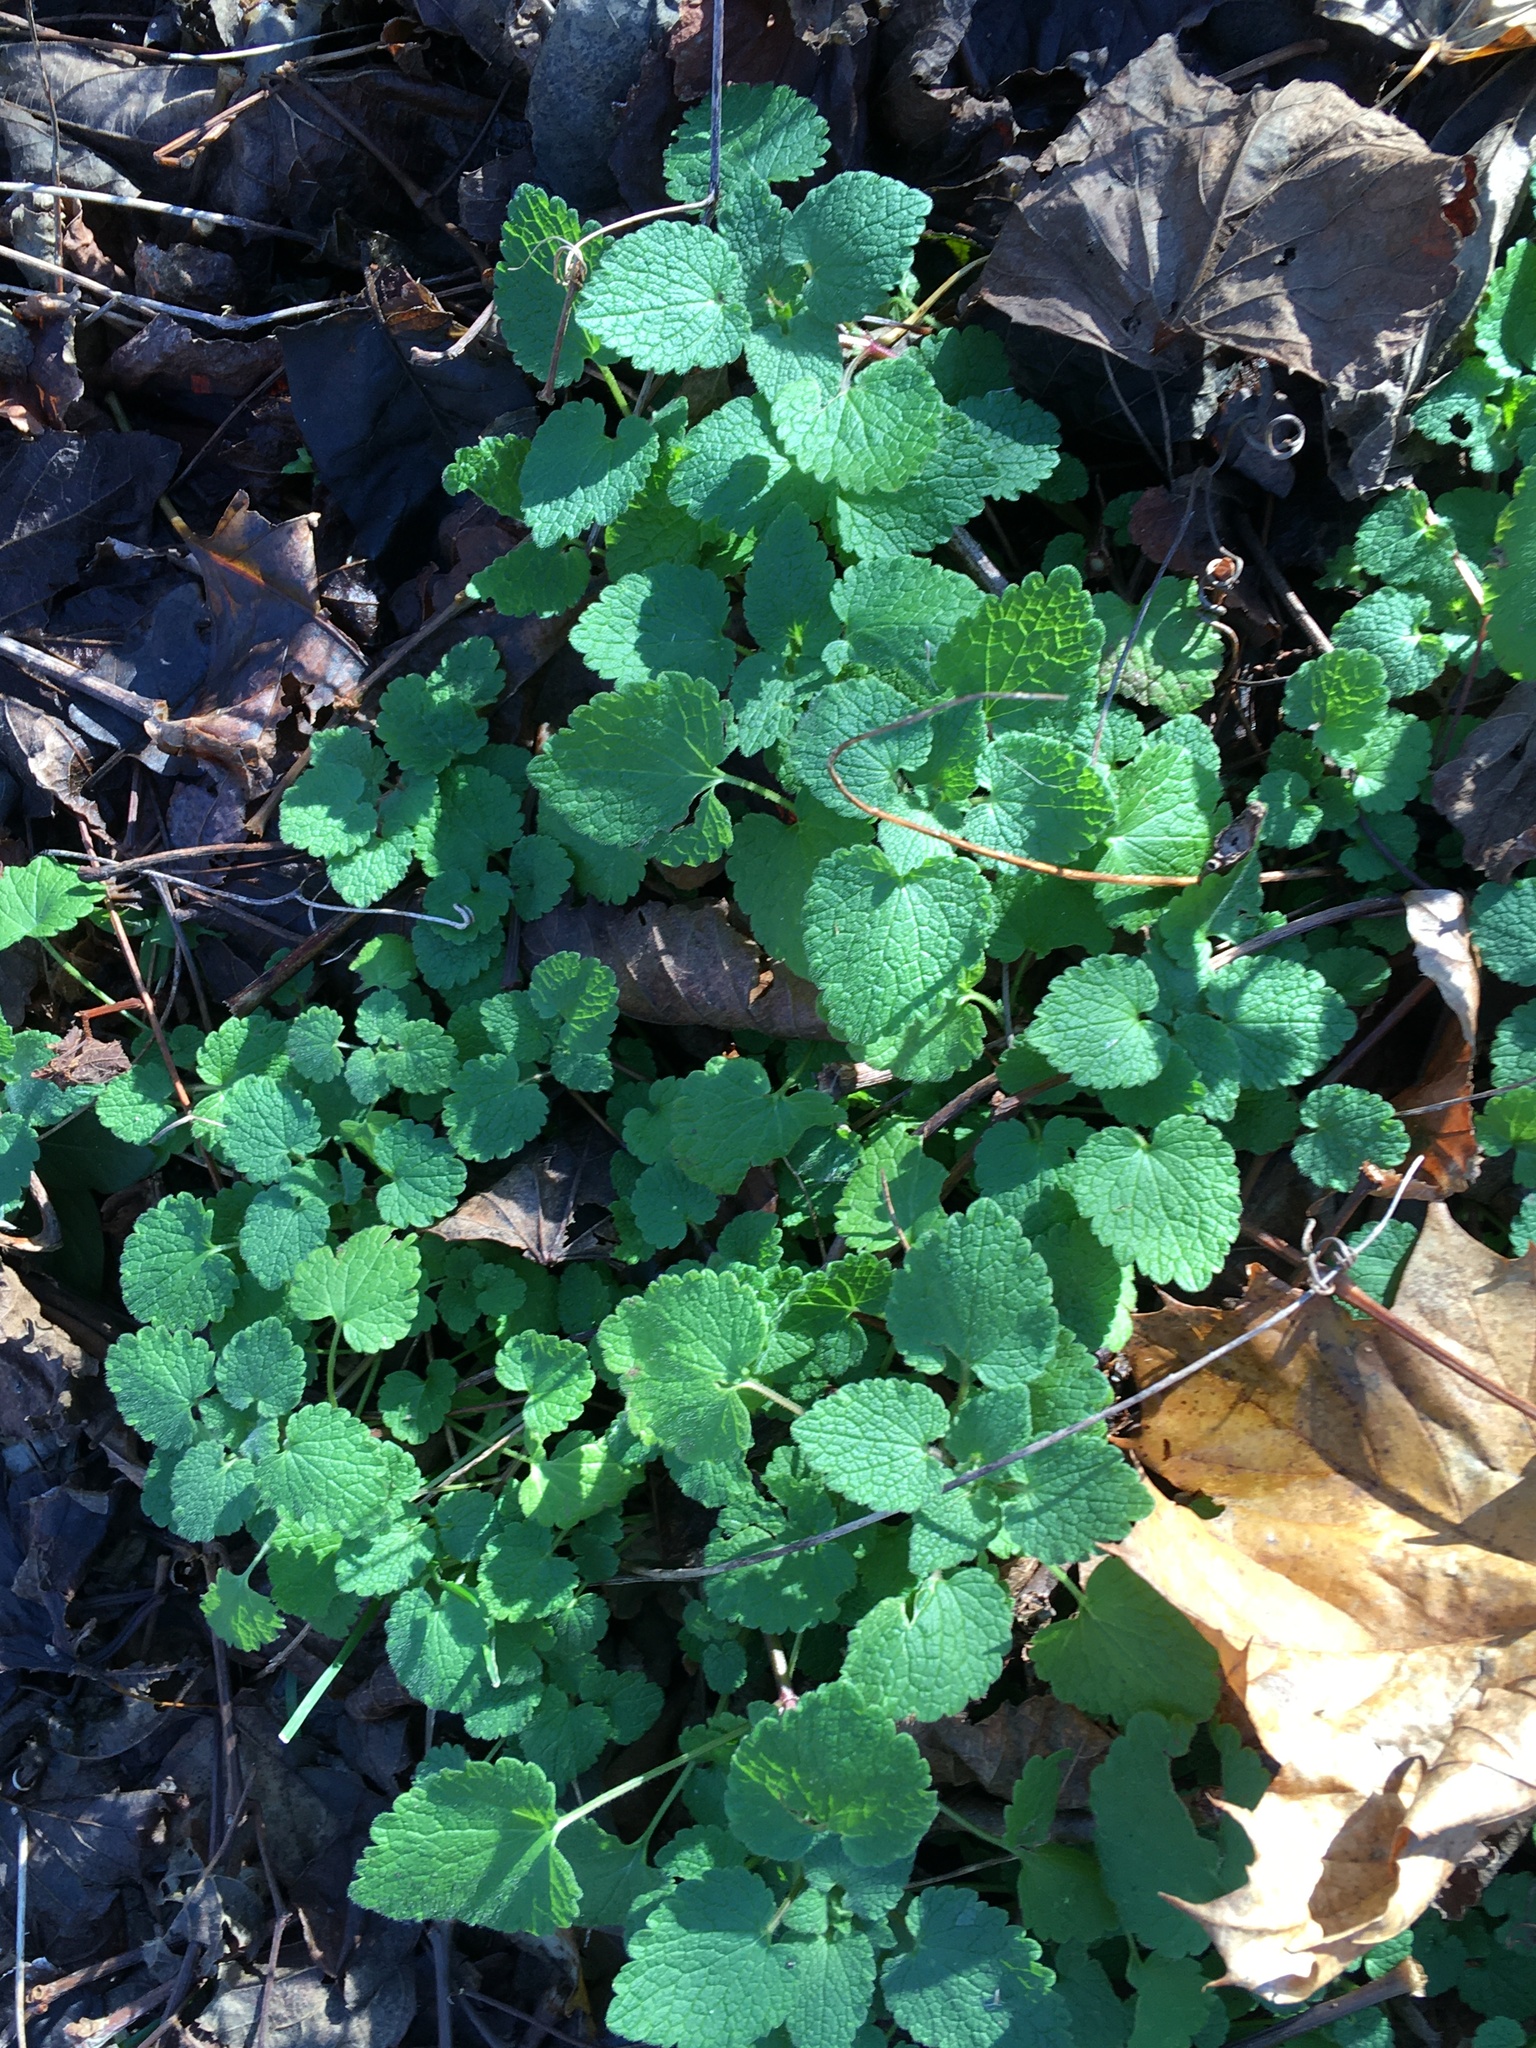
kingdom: Plantae
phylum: Tracheophyta
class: Magnoliopsida
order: Lamiales
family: Lamiaceae
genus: Lamium
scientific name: Lamium purpureum
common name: Red dead-nettle
